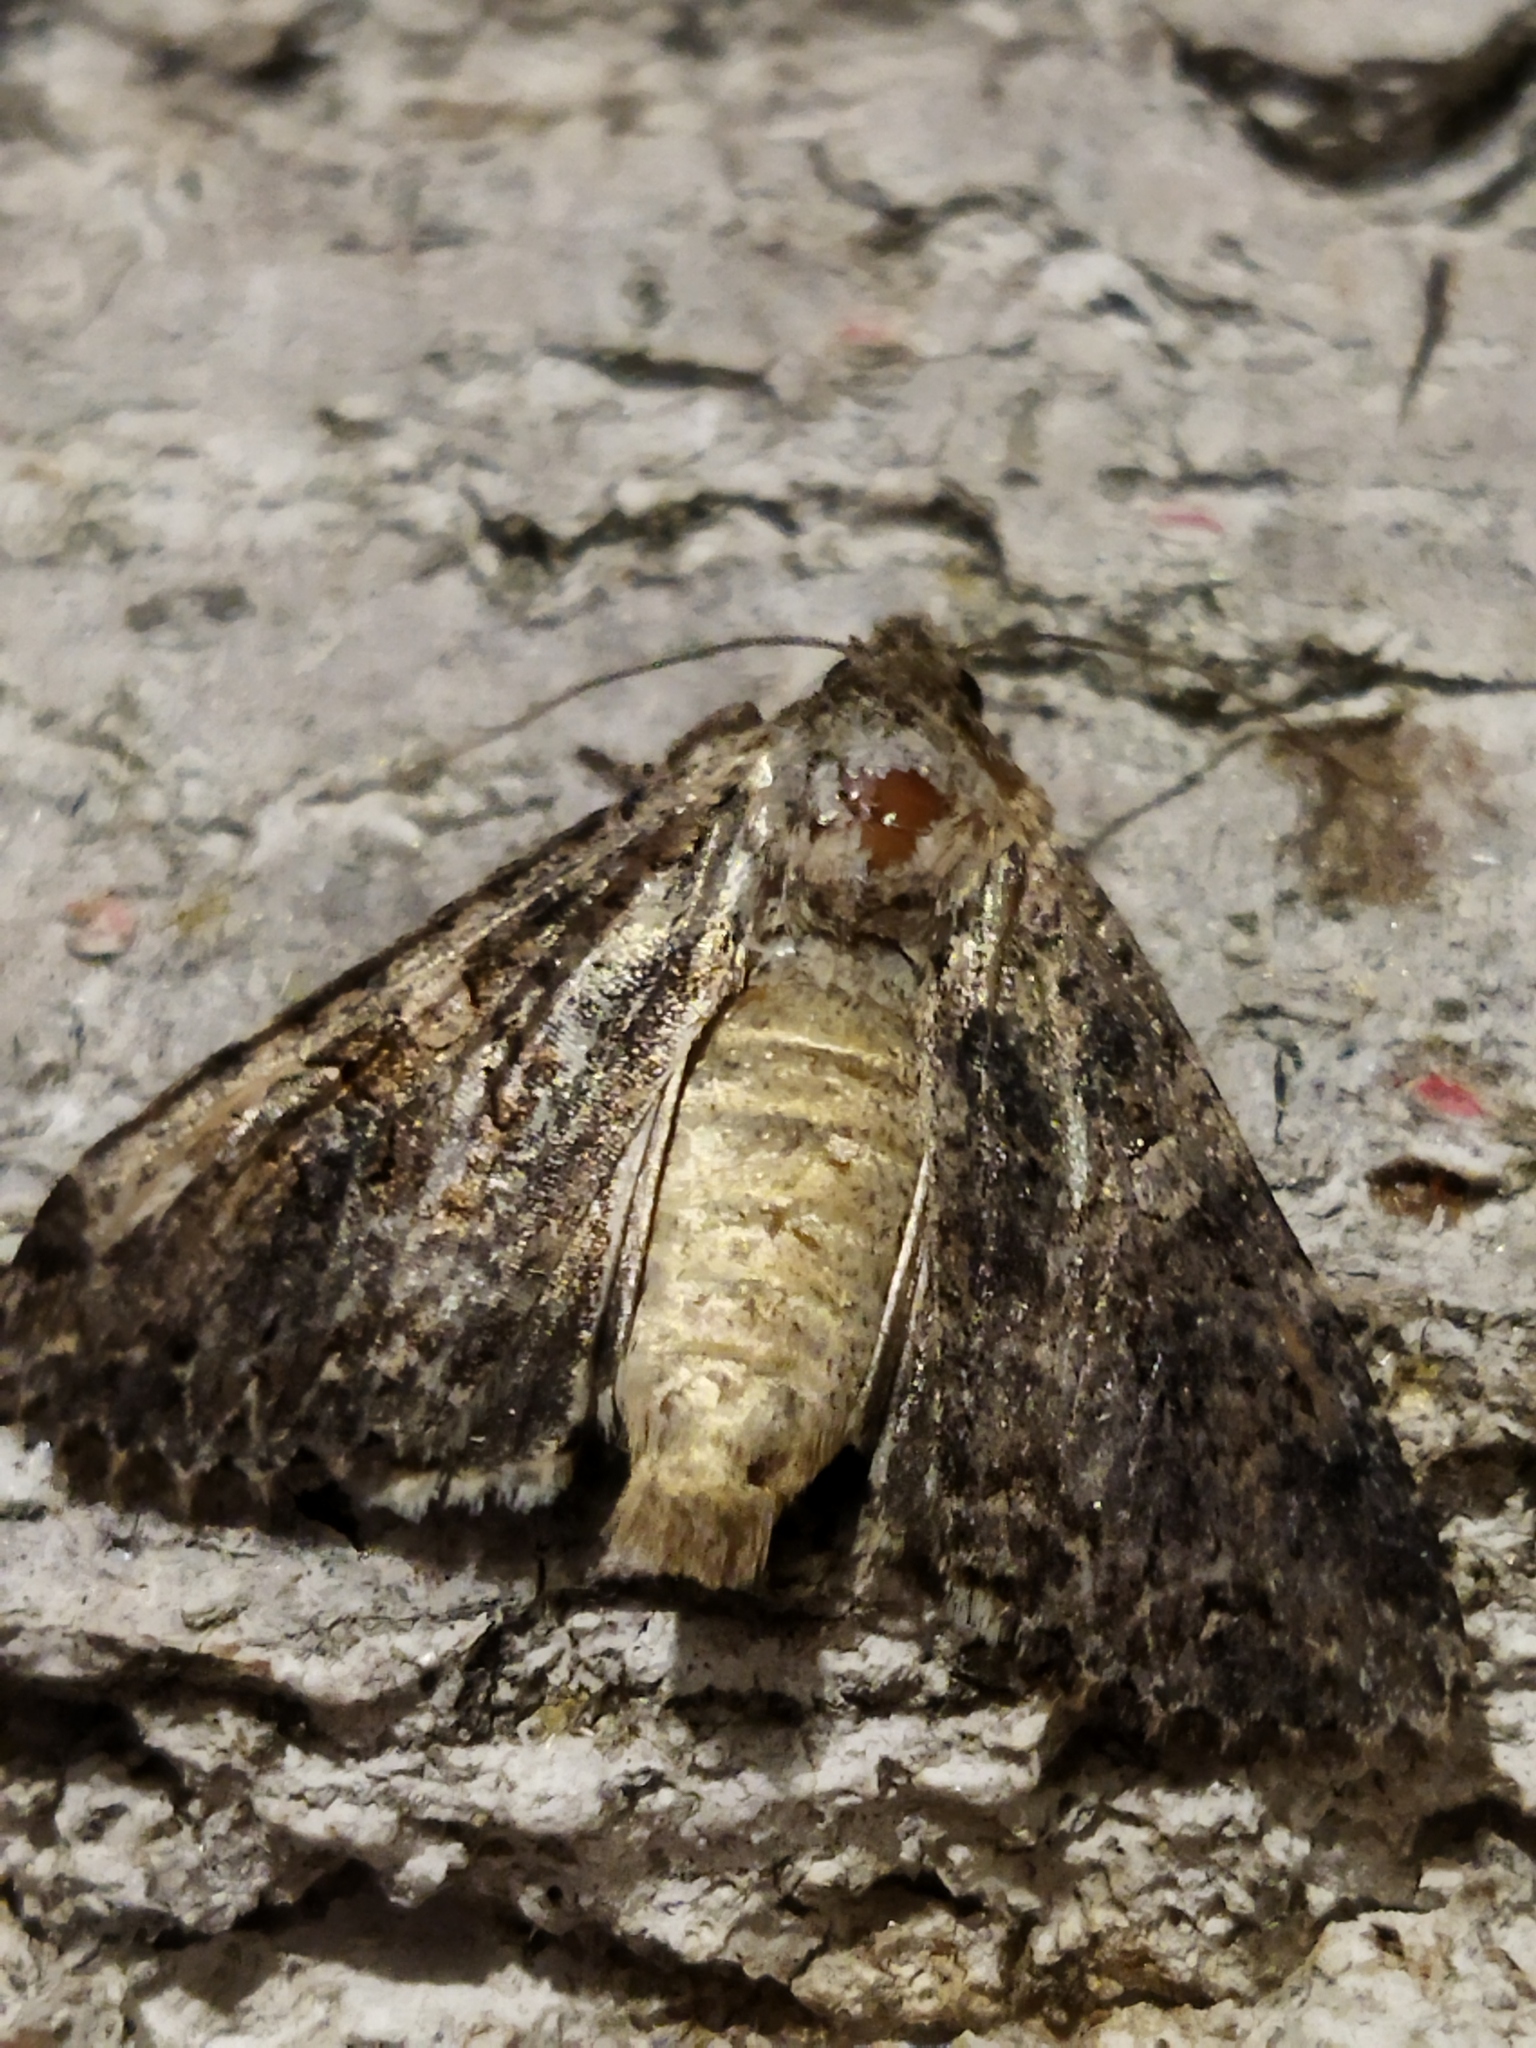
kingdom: Animalia
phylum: Arthropoda
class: Insecta
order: Lepidoptera
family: Noctuidae
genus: Anarta
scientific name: Anarta trifolii
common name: Clover cutworm moth
